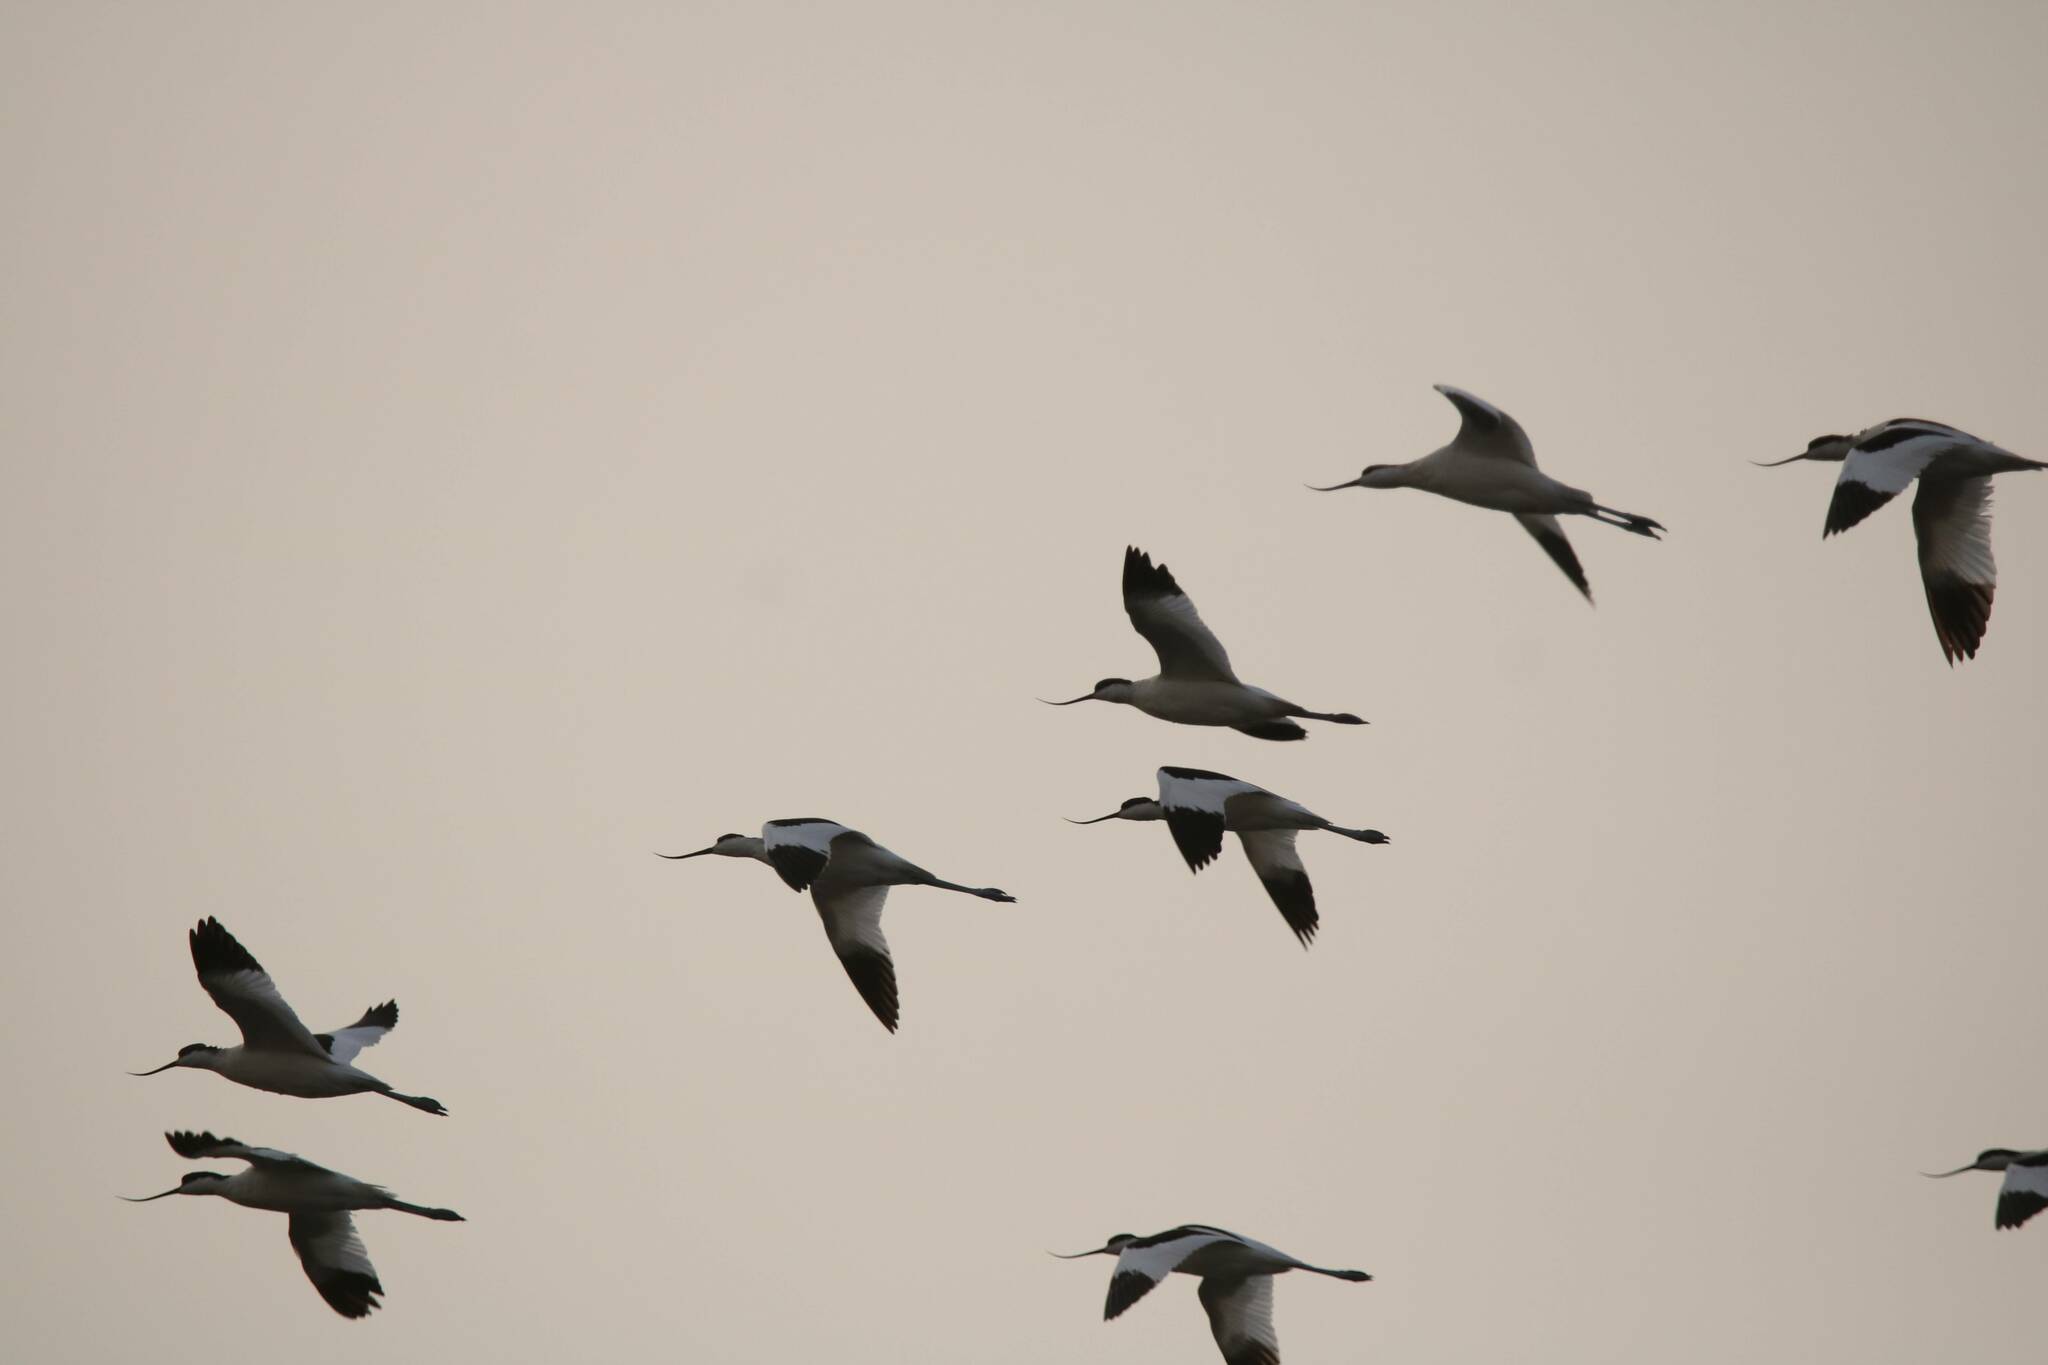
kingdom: Animalia
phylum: Chordata
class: Aves
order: Charadriiformes
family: Recurvirostridae
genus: Recurvirostra
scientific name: Recurvirostra avosetta
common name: Pied avocet
